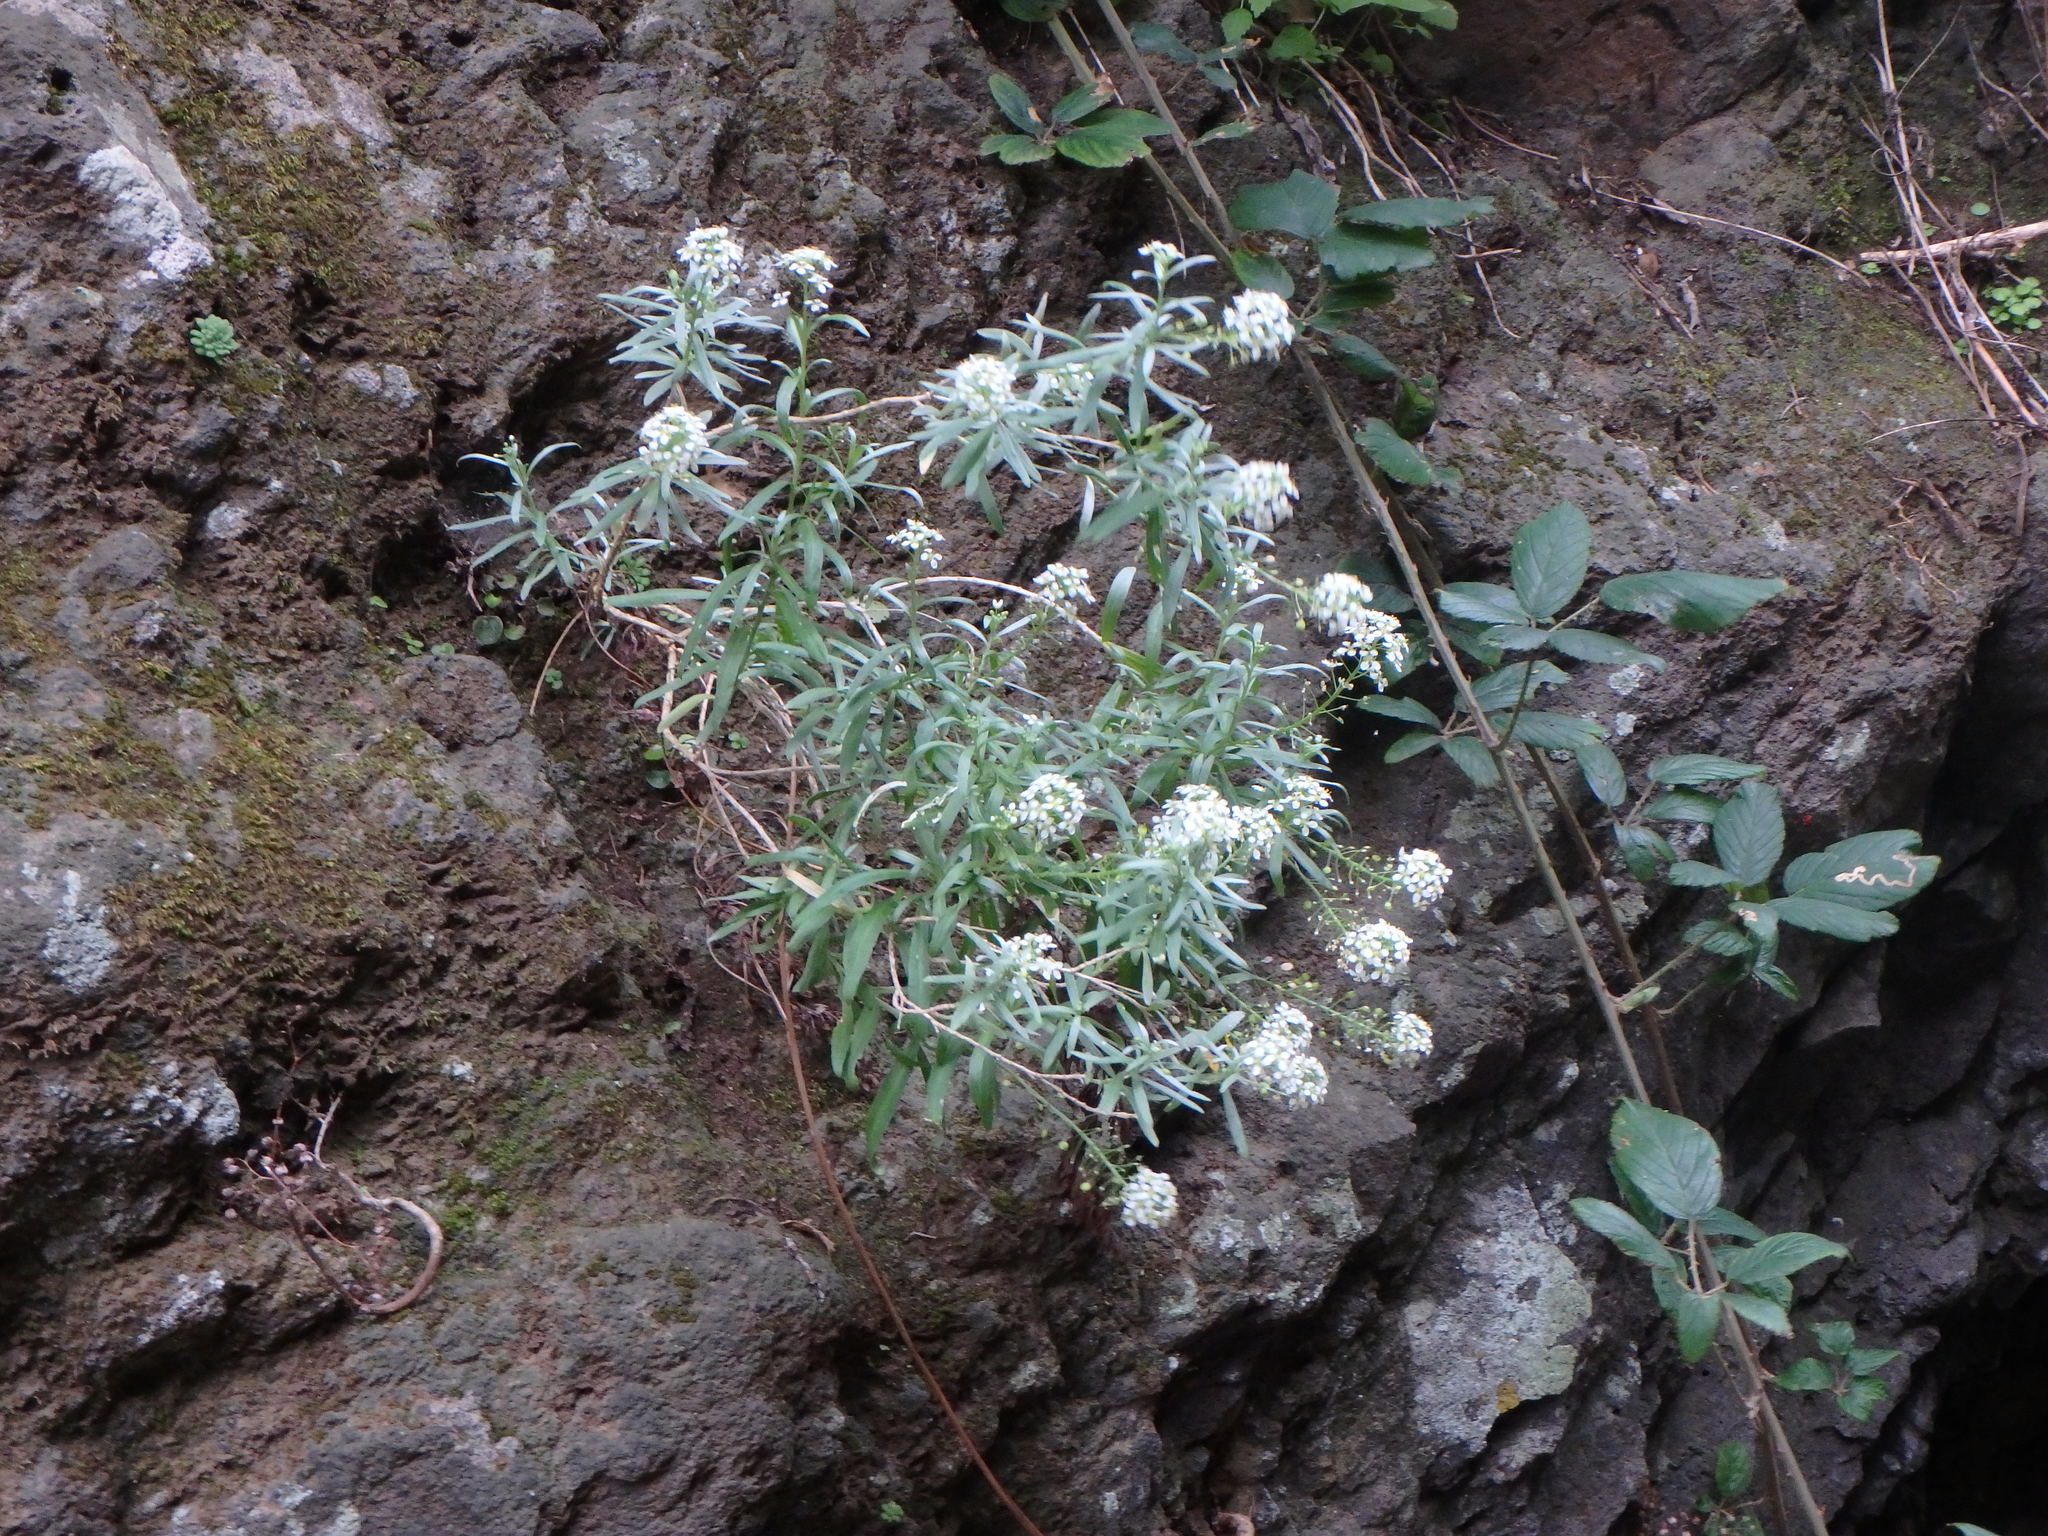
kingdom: Plantae
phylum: Tracheophyta
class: Magnoliopsida
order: Brassicales
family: Brassicaceae
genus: Lobularia
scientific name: Lobularia canariensis
